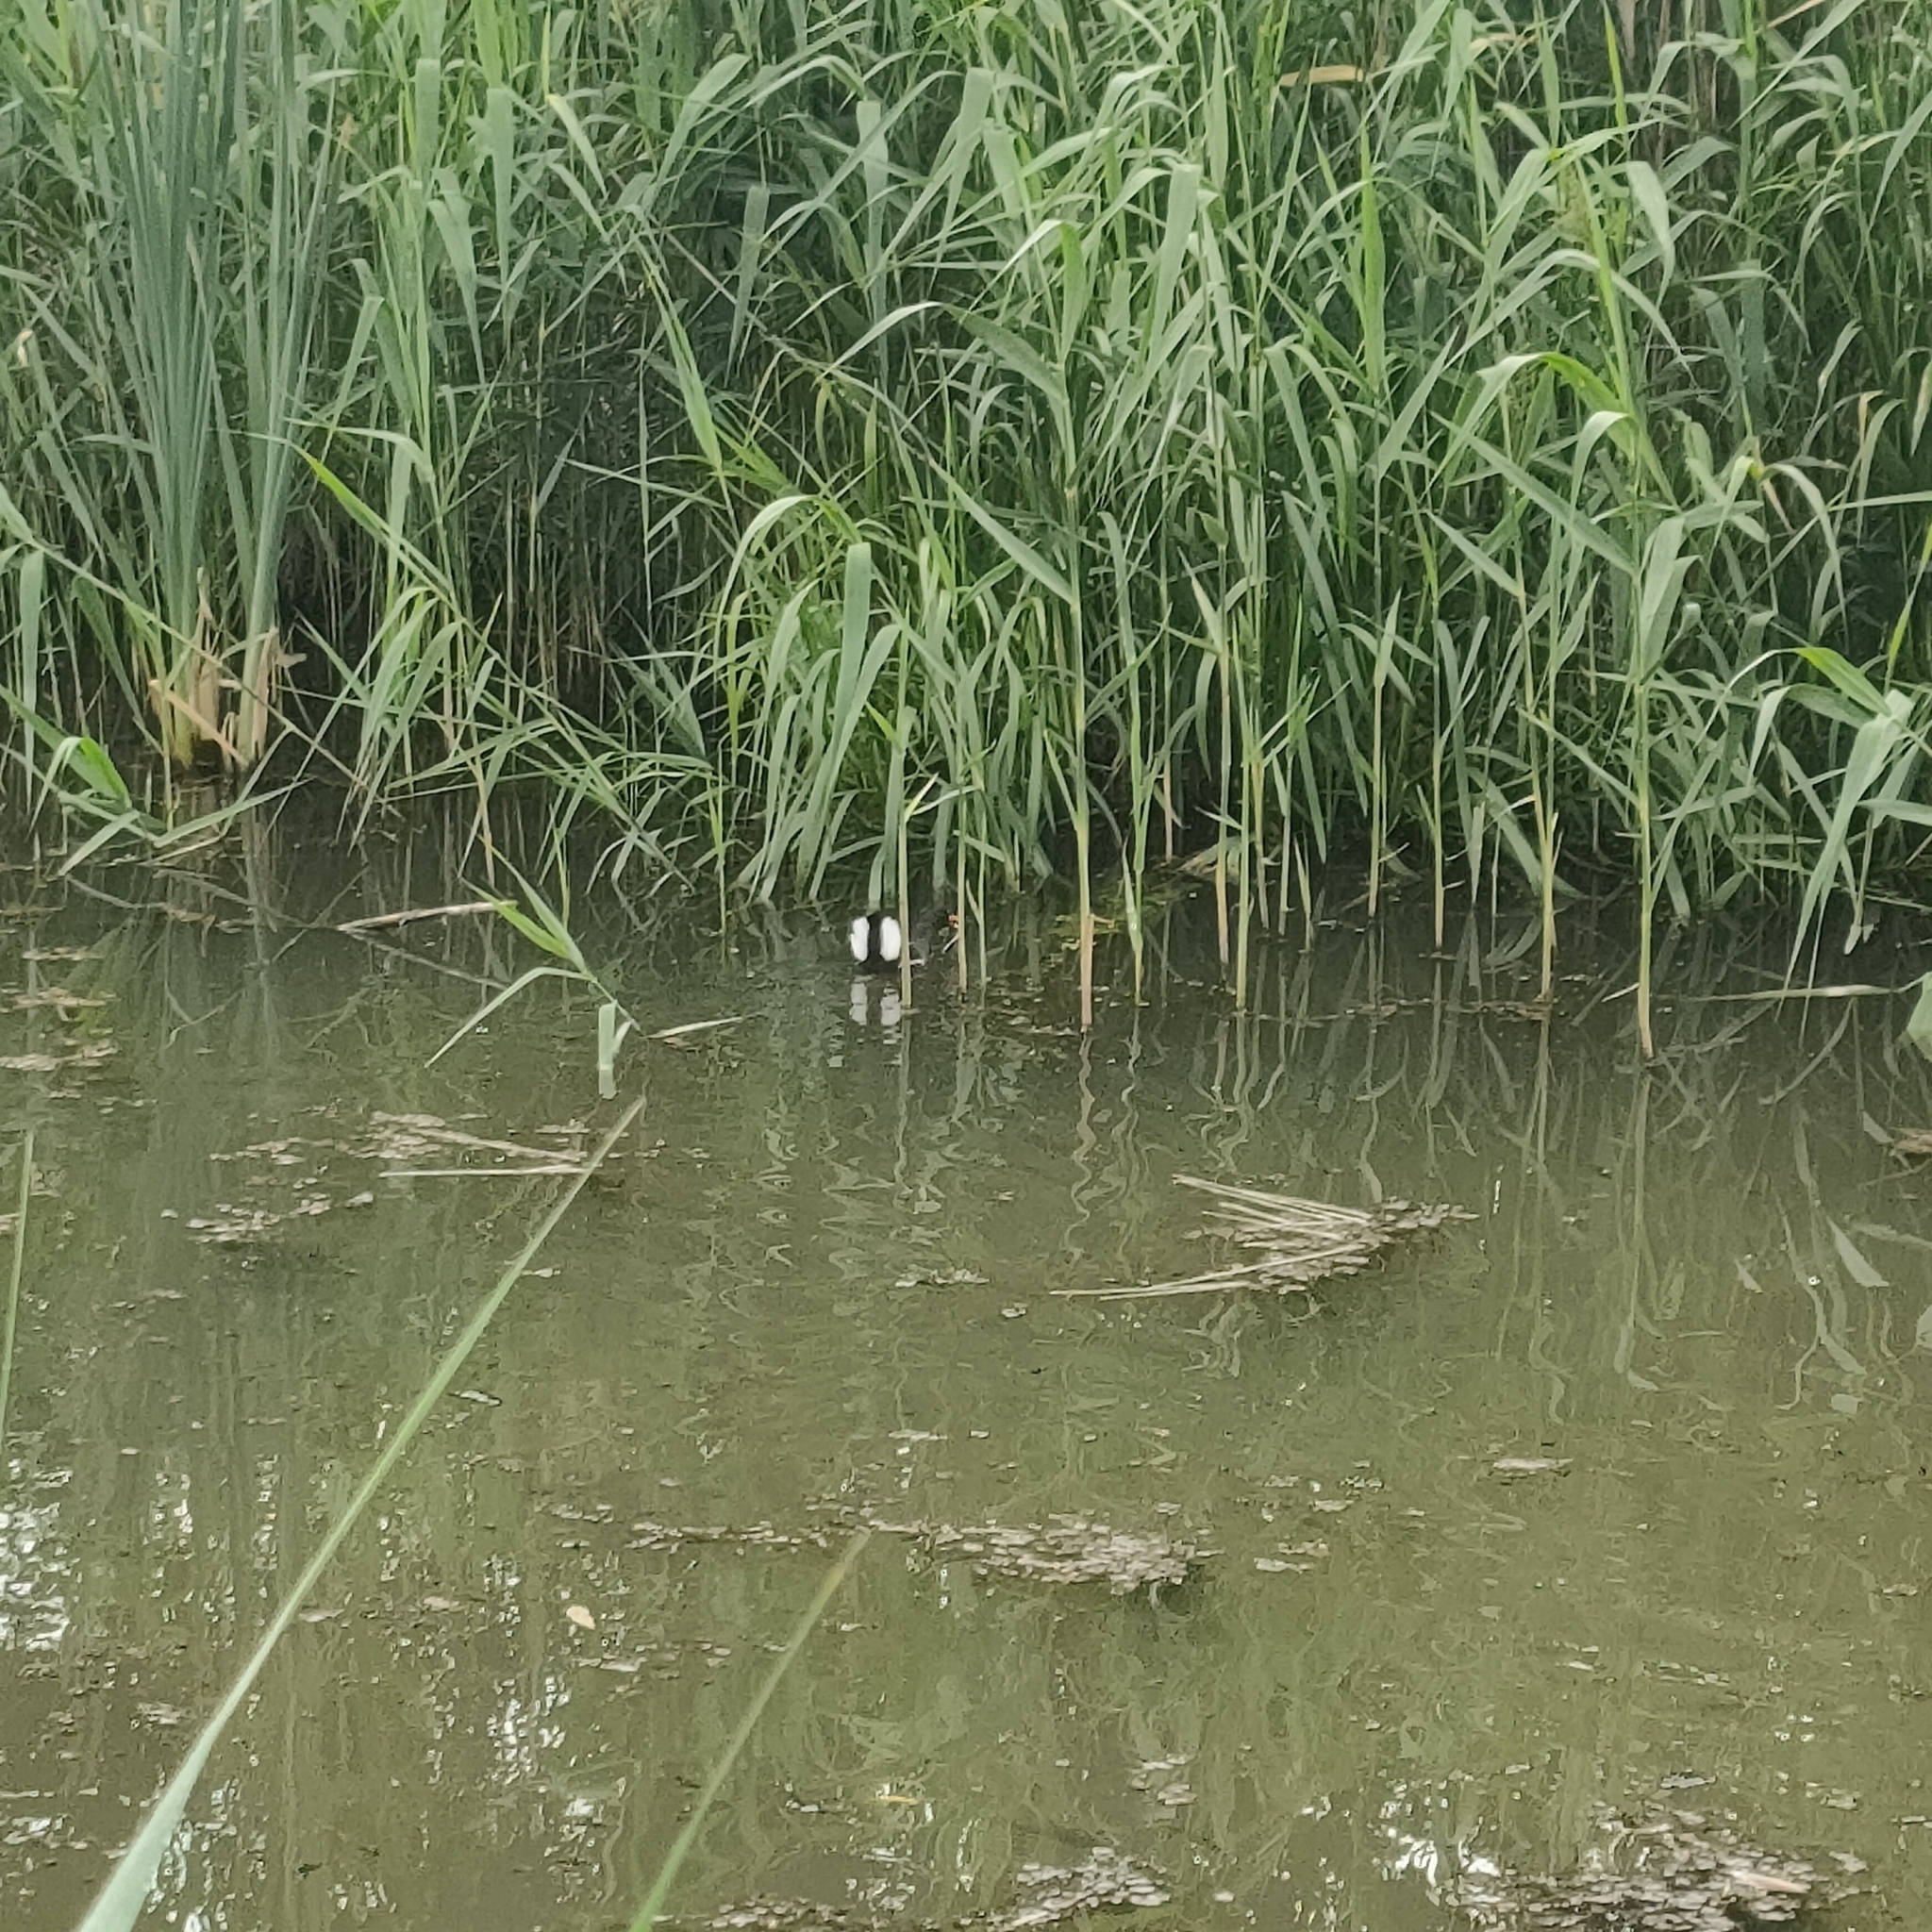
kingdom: Animalia
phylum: Chordata
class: Aves
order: Gruiformes
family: Rallidae
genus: Gallinula
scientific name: Gallinula chloropus
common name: Common moorhen
